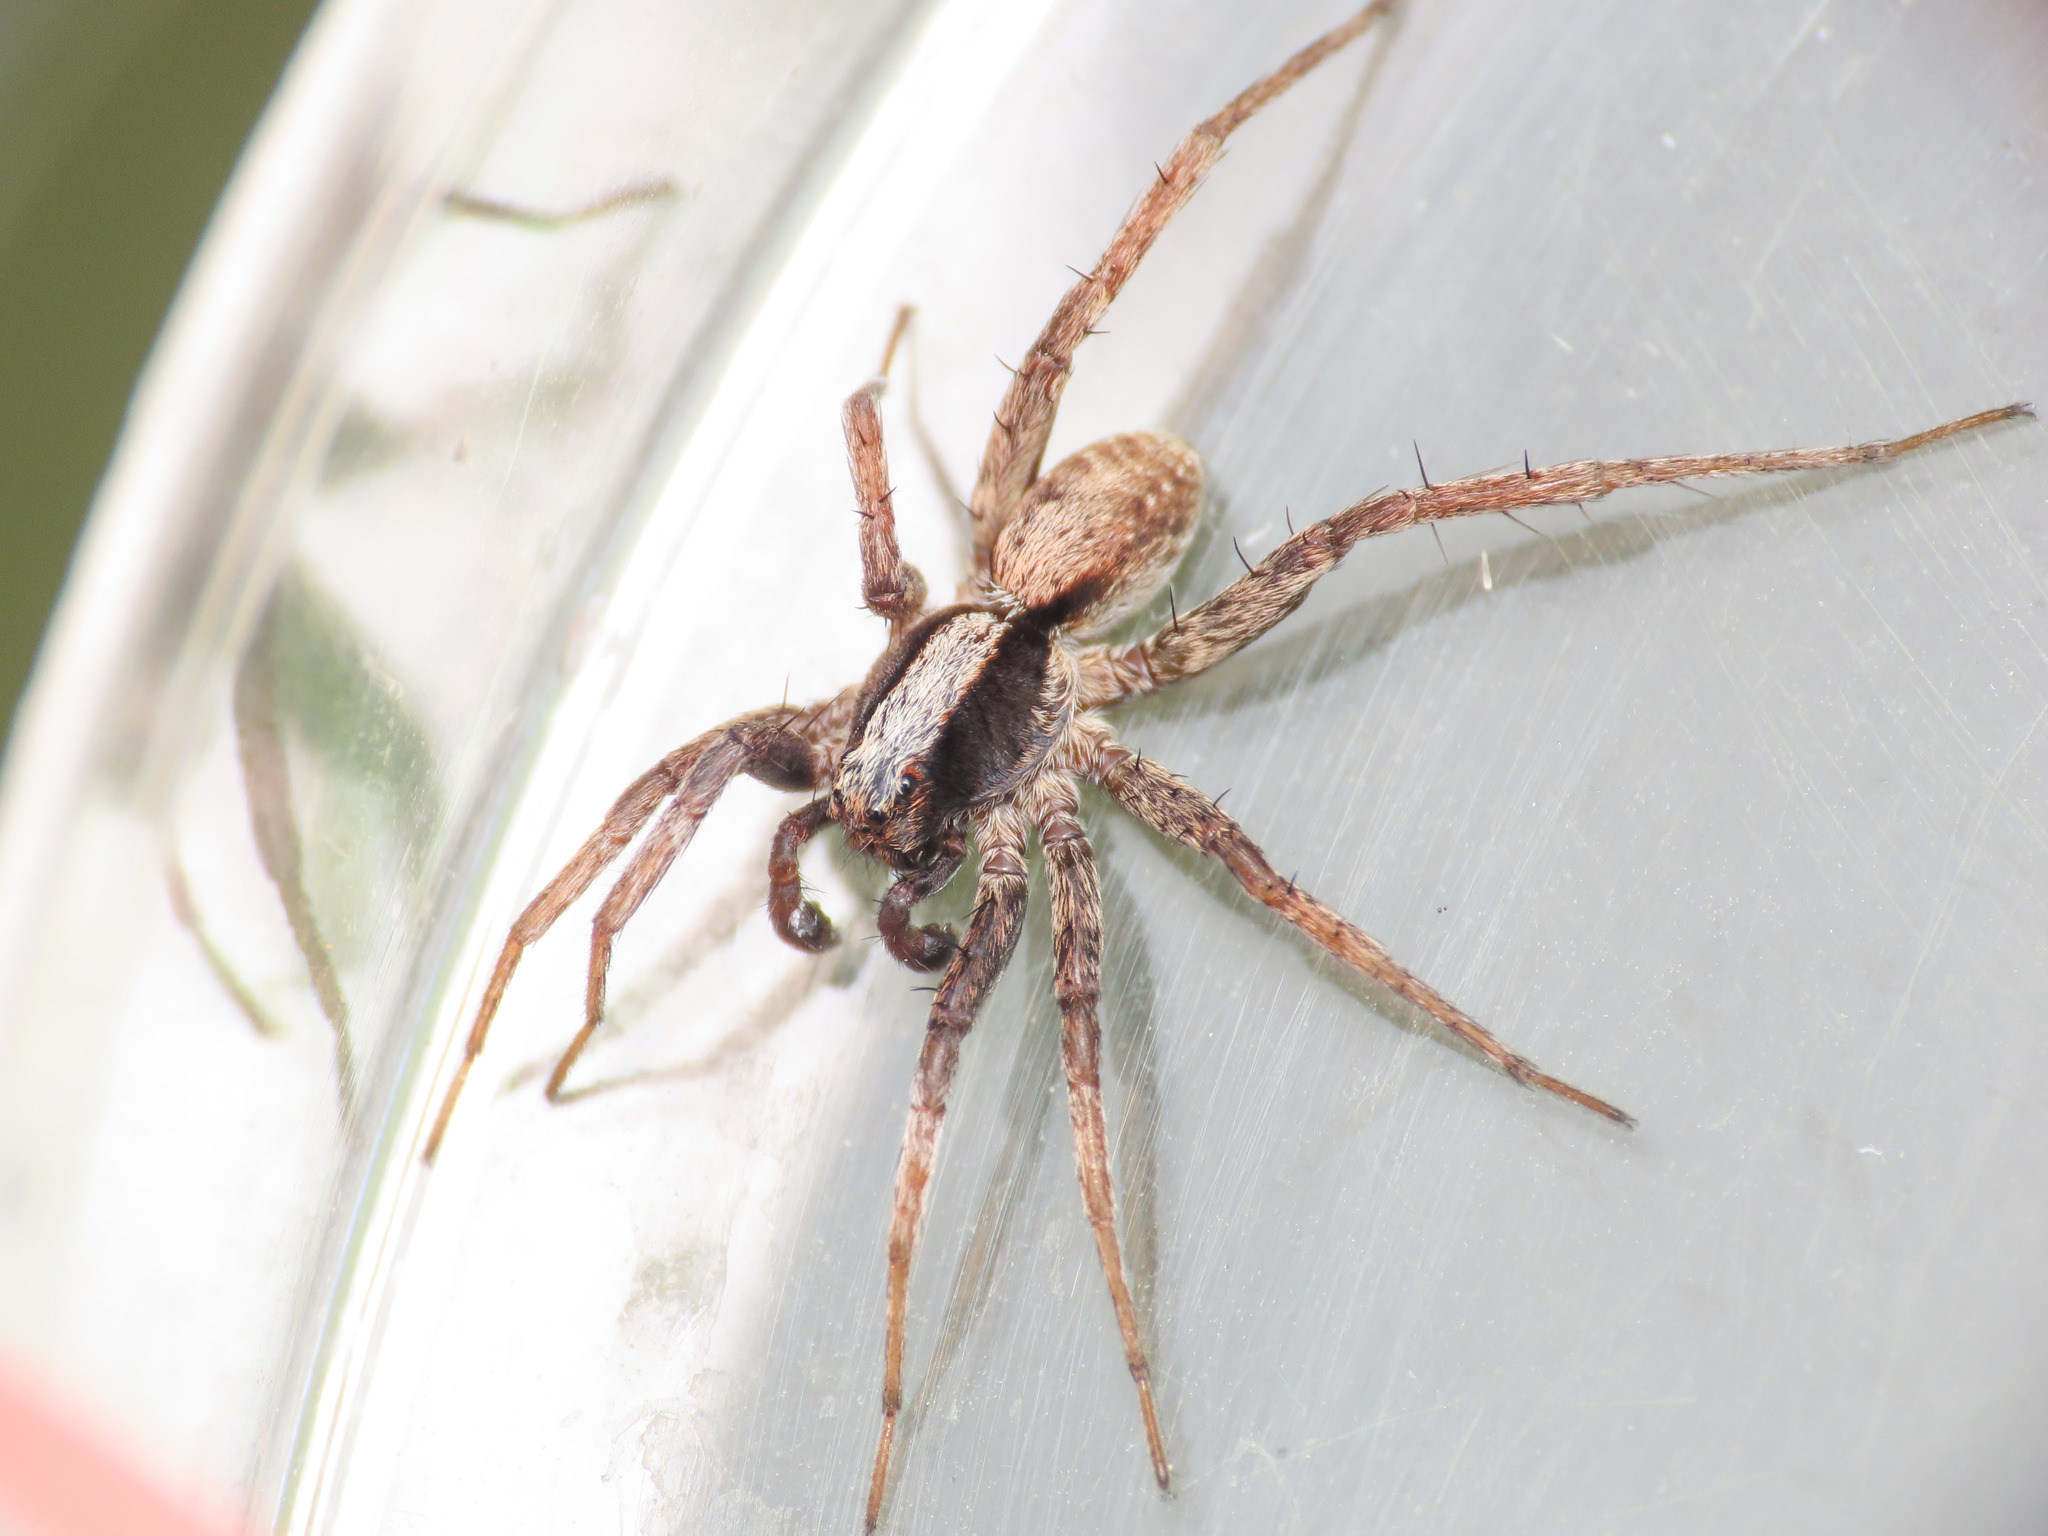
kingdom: Animalia
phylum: Arthropoda
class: Arachnida
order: Araneae
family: Lycosidae
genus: Xerolycosa
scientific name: Xerolycosa nemoralis
